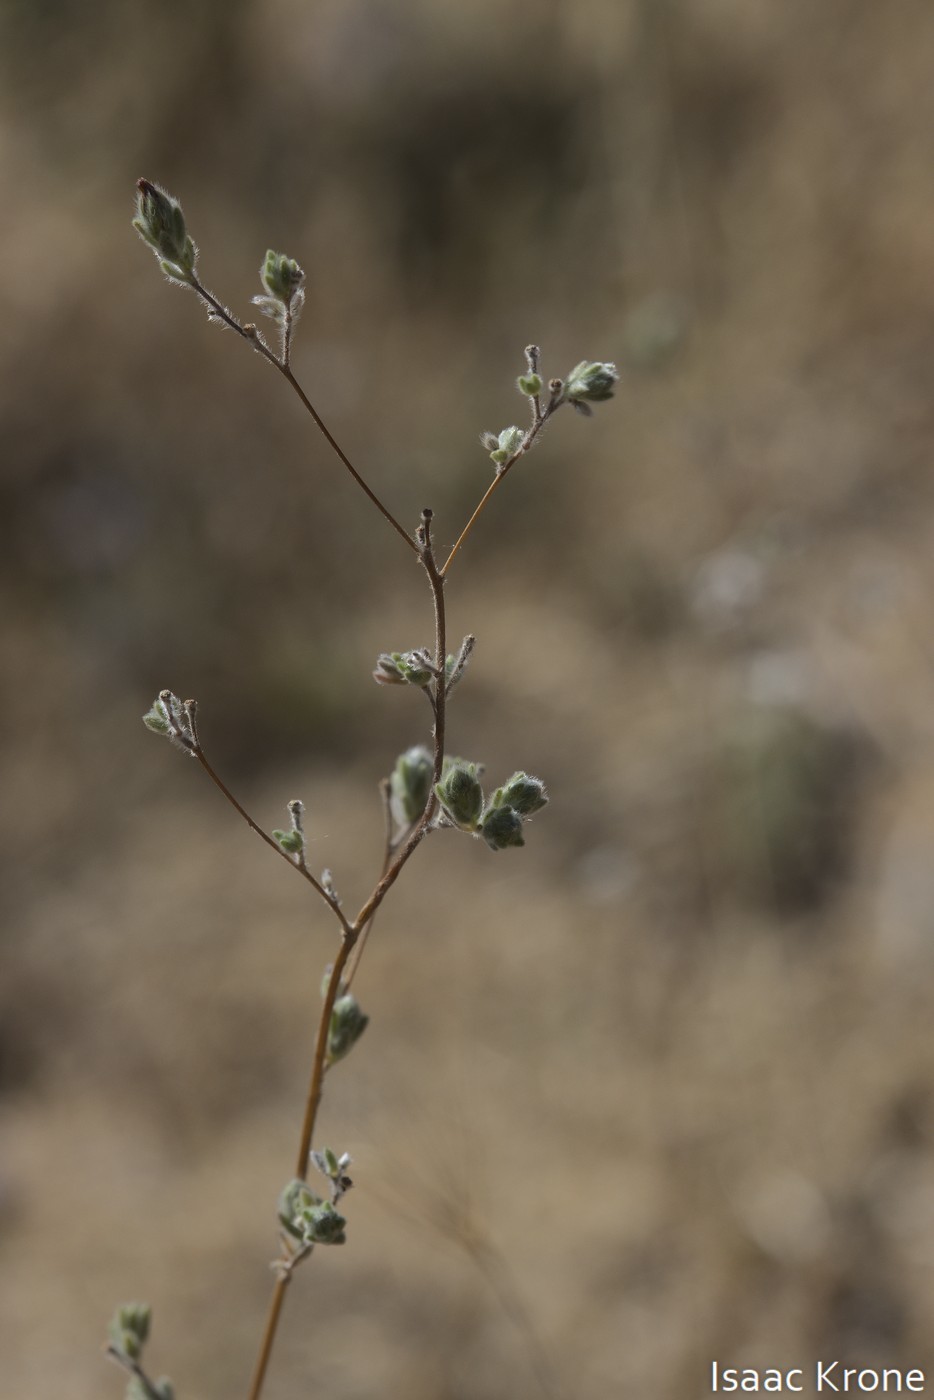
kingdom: Plantae
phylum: Tracheophyta
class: Magnoliopsida
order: Asterales
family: Asteraceae
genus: Lagophylla
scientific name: Lagophylla ramosissima
